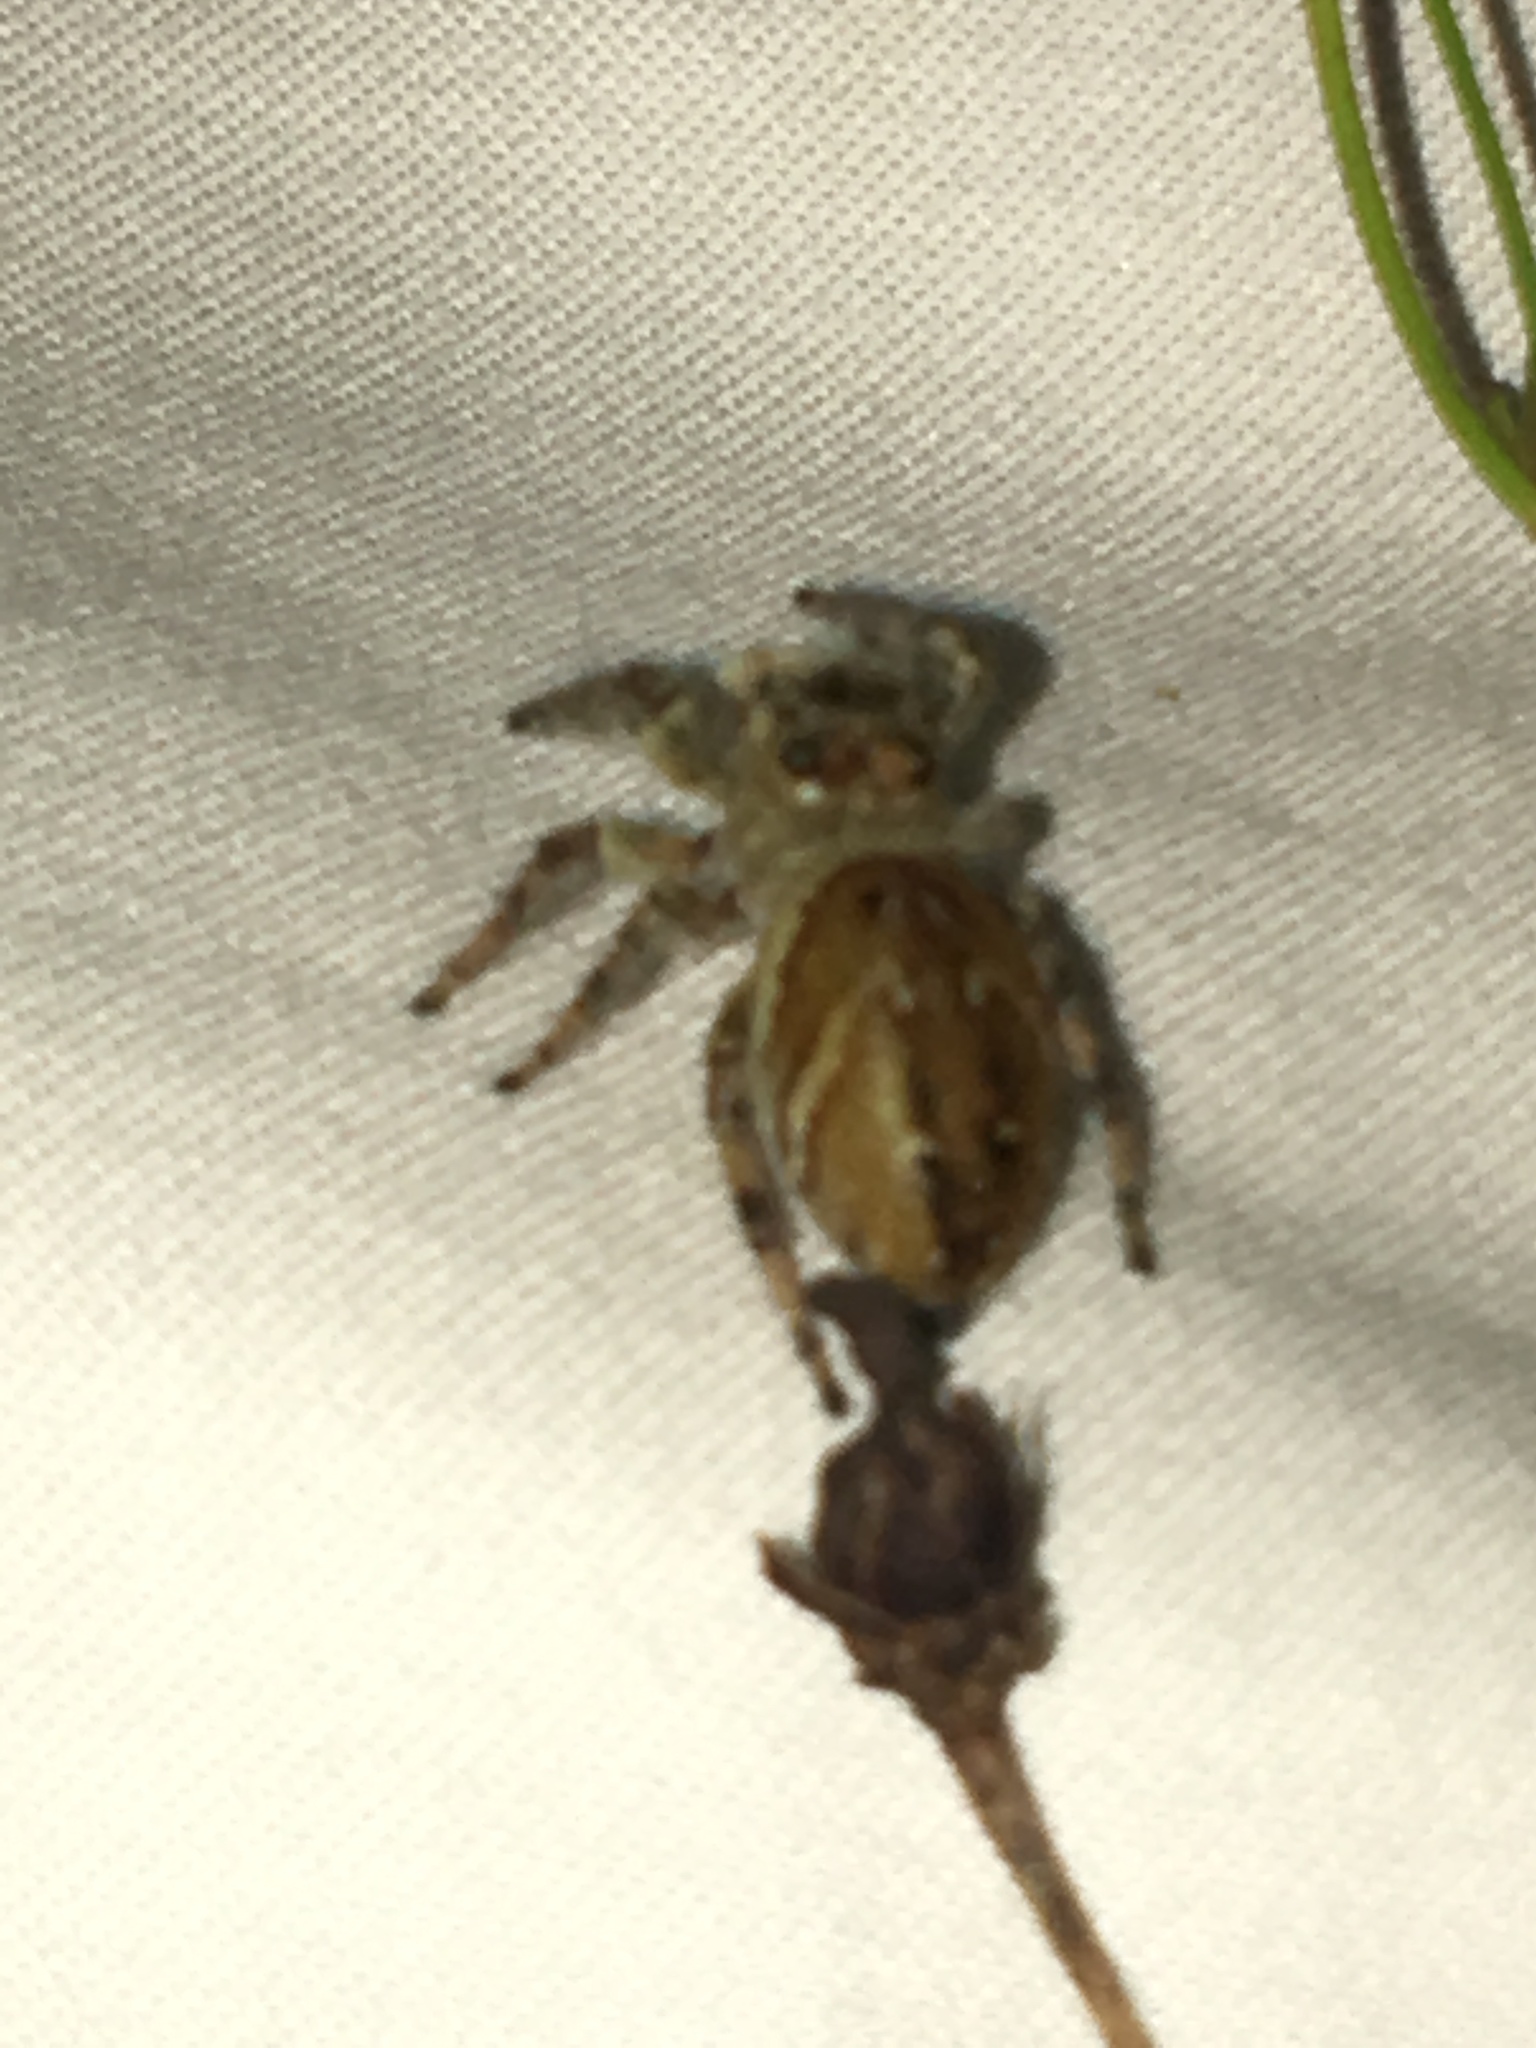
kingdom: Animalia
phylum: Arthropoda
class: Arachnida
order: Araneae
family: Salticidae
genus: Phidippus
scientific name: Phidippus clarus
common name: Brilliant jumping spider
